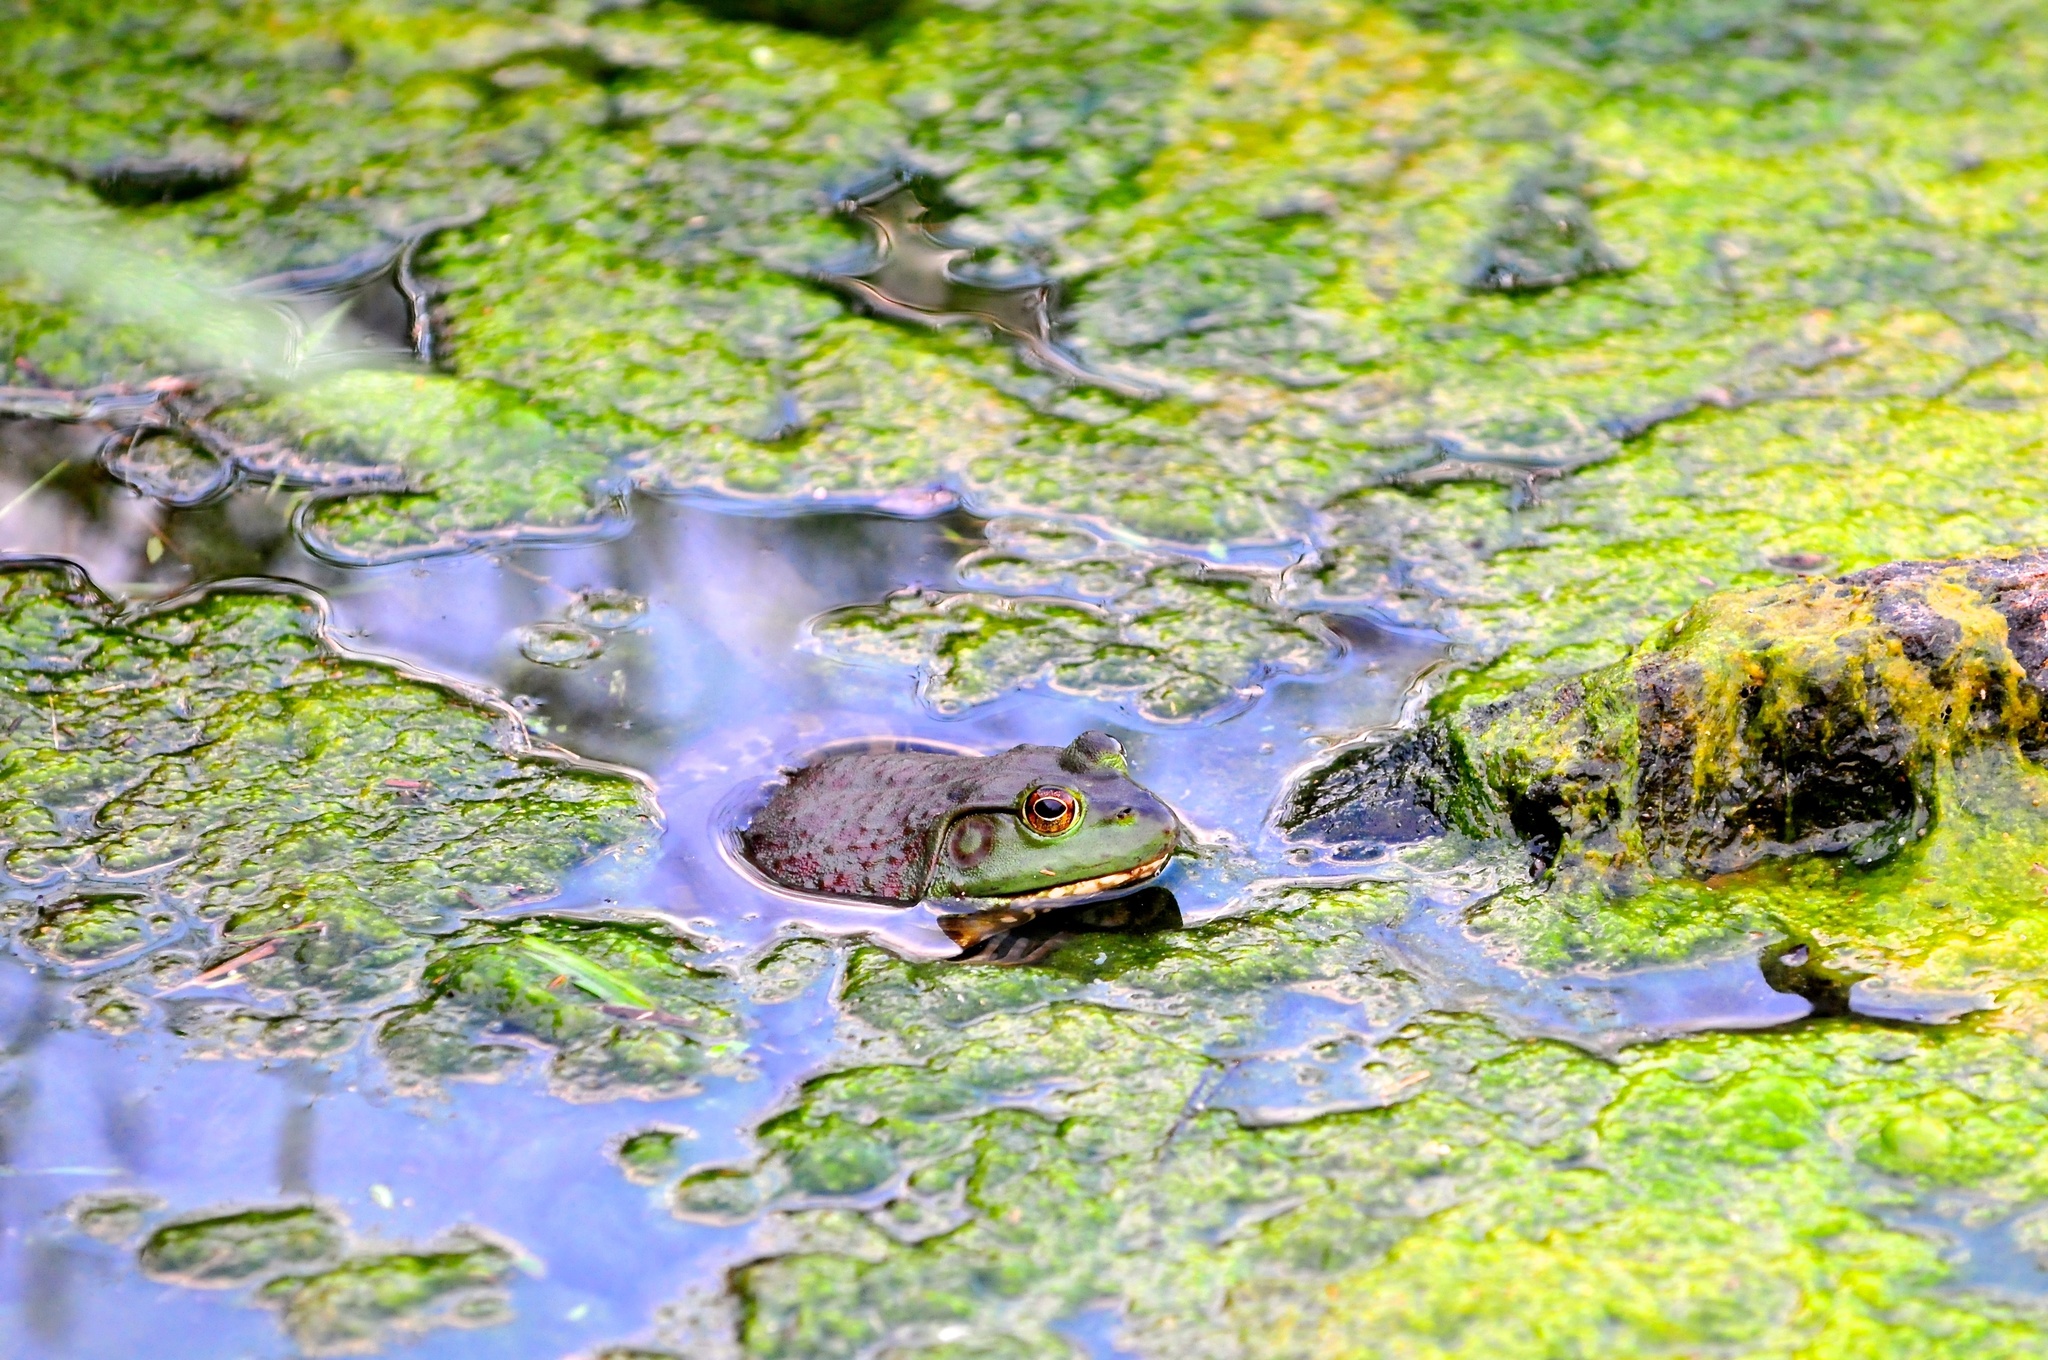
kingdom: Animalia
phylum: Chordata
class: Amphibia
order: Anura
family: Ranidae
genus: Lithobates
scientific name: Lithobates catesbeianus
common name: American bullfrog
